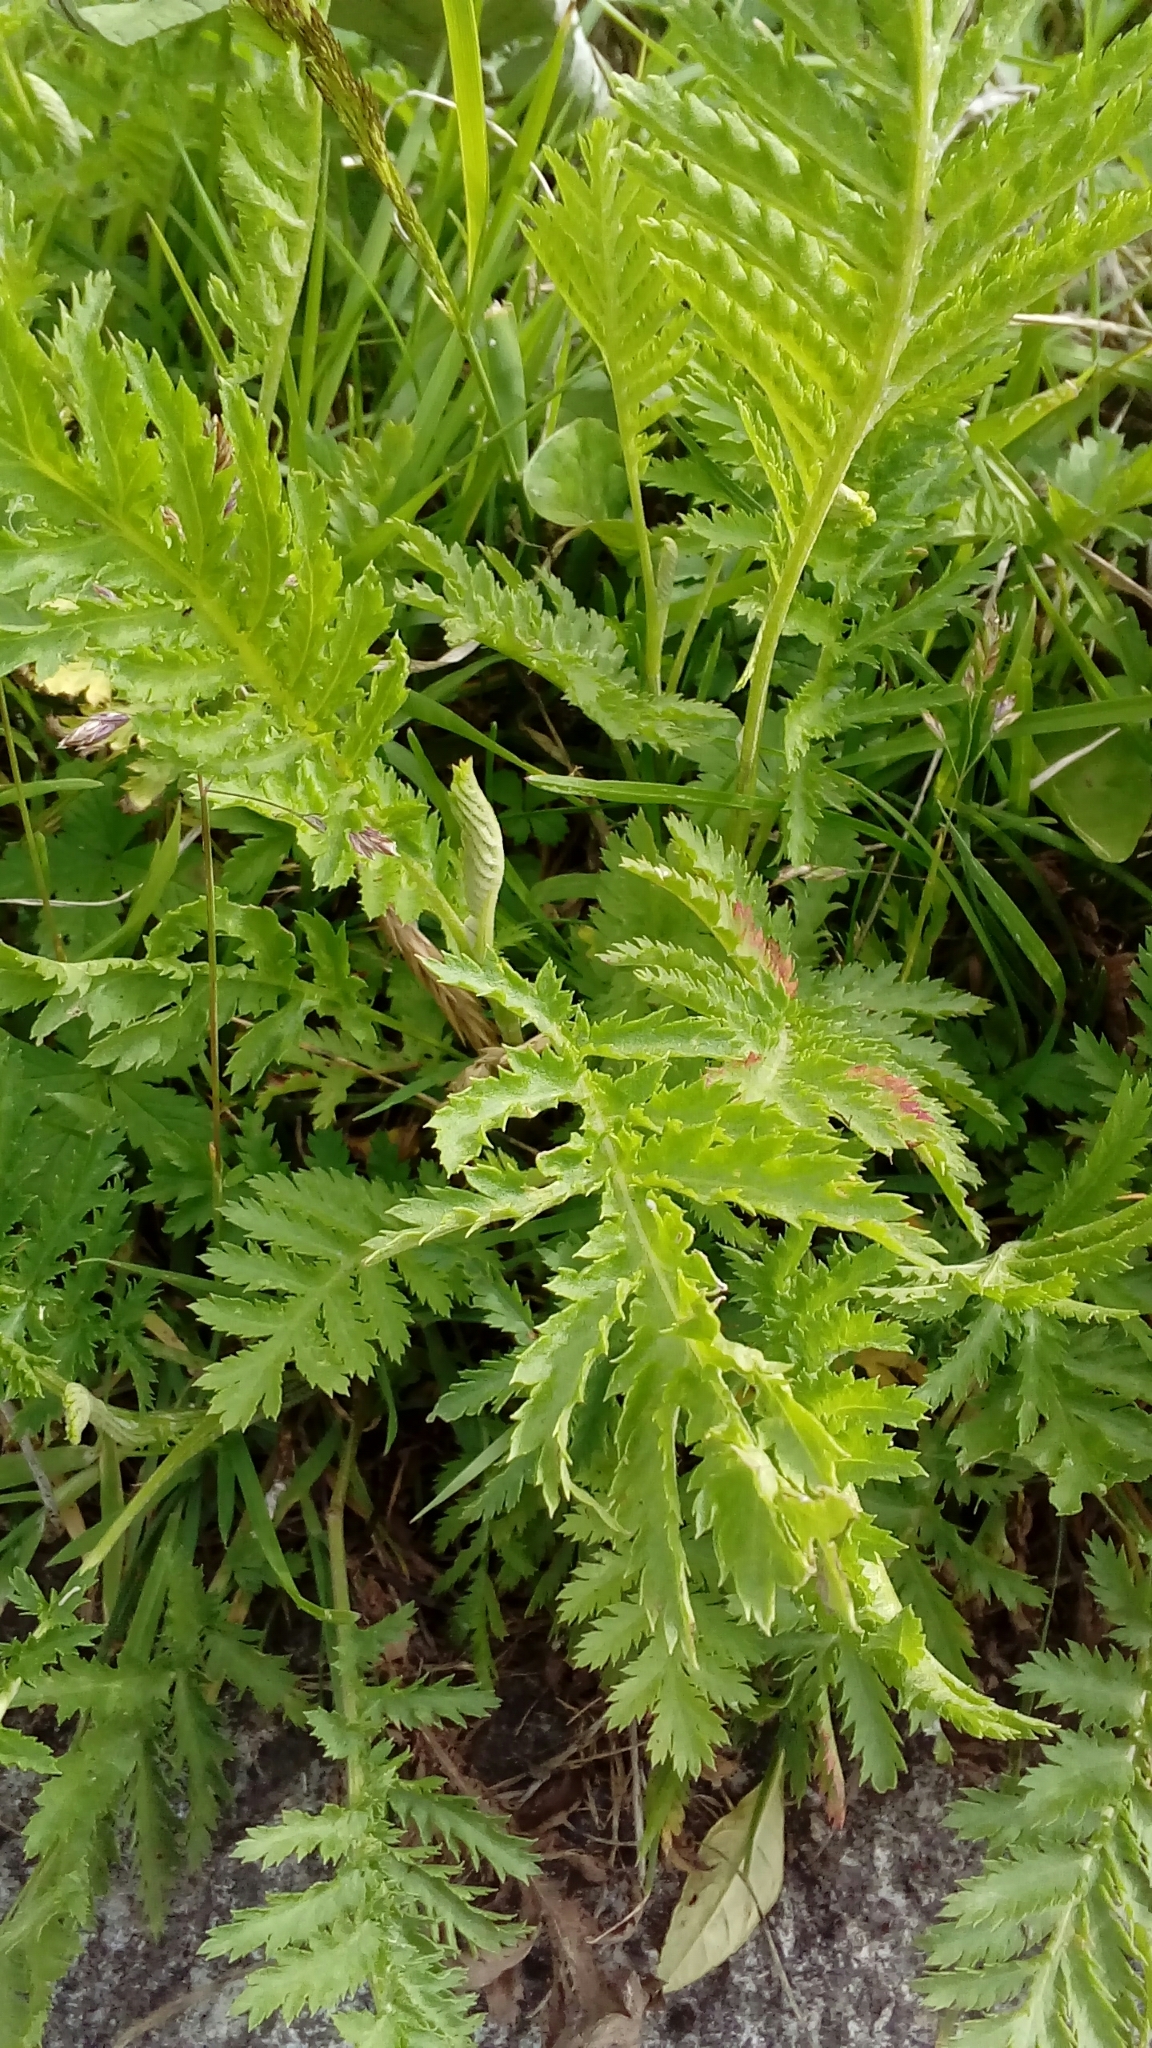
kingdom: Plantae
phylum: Tracheophyta
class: Magnoliopsida
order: Asterales
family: Asteraceae
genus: Tanacetum
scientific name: Tanacetum vulgare
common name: Common tansy
